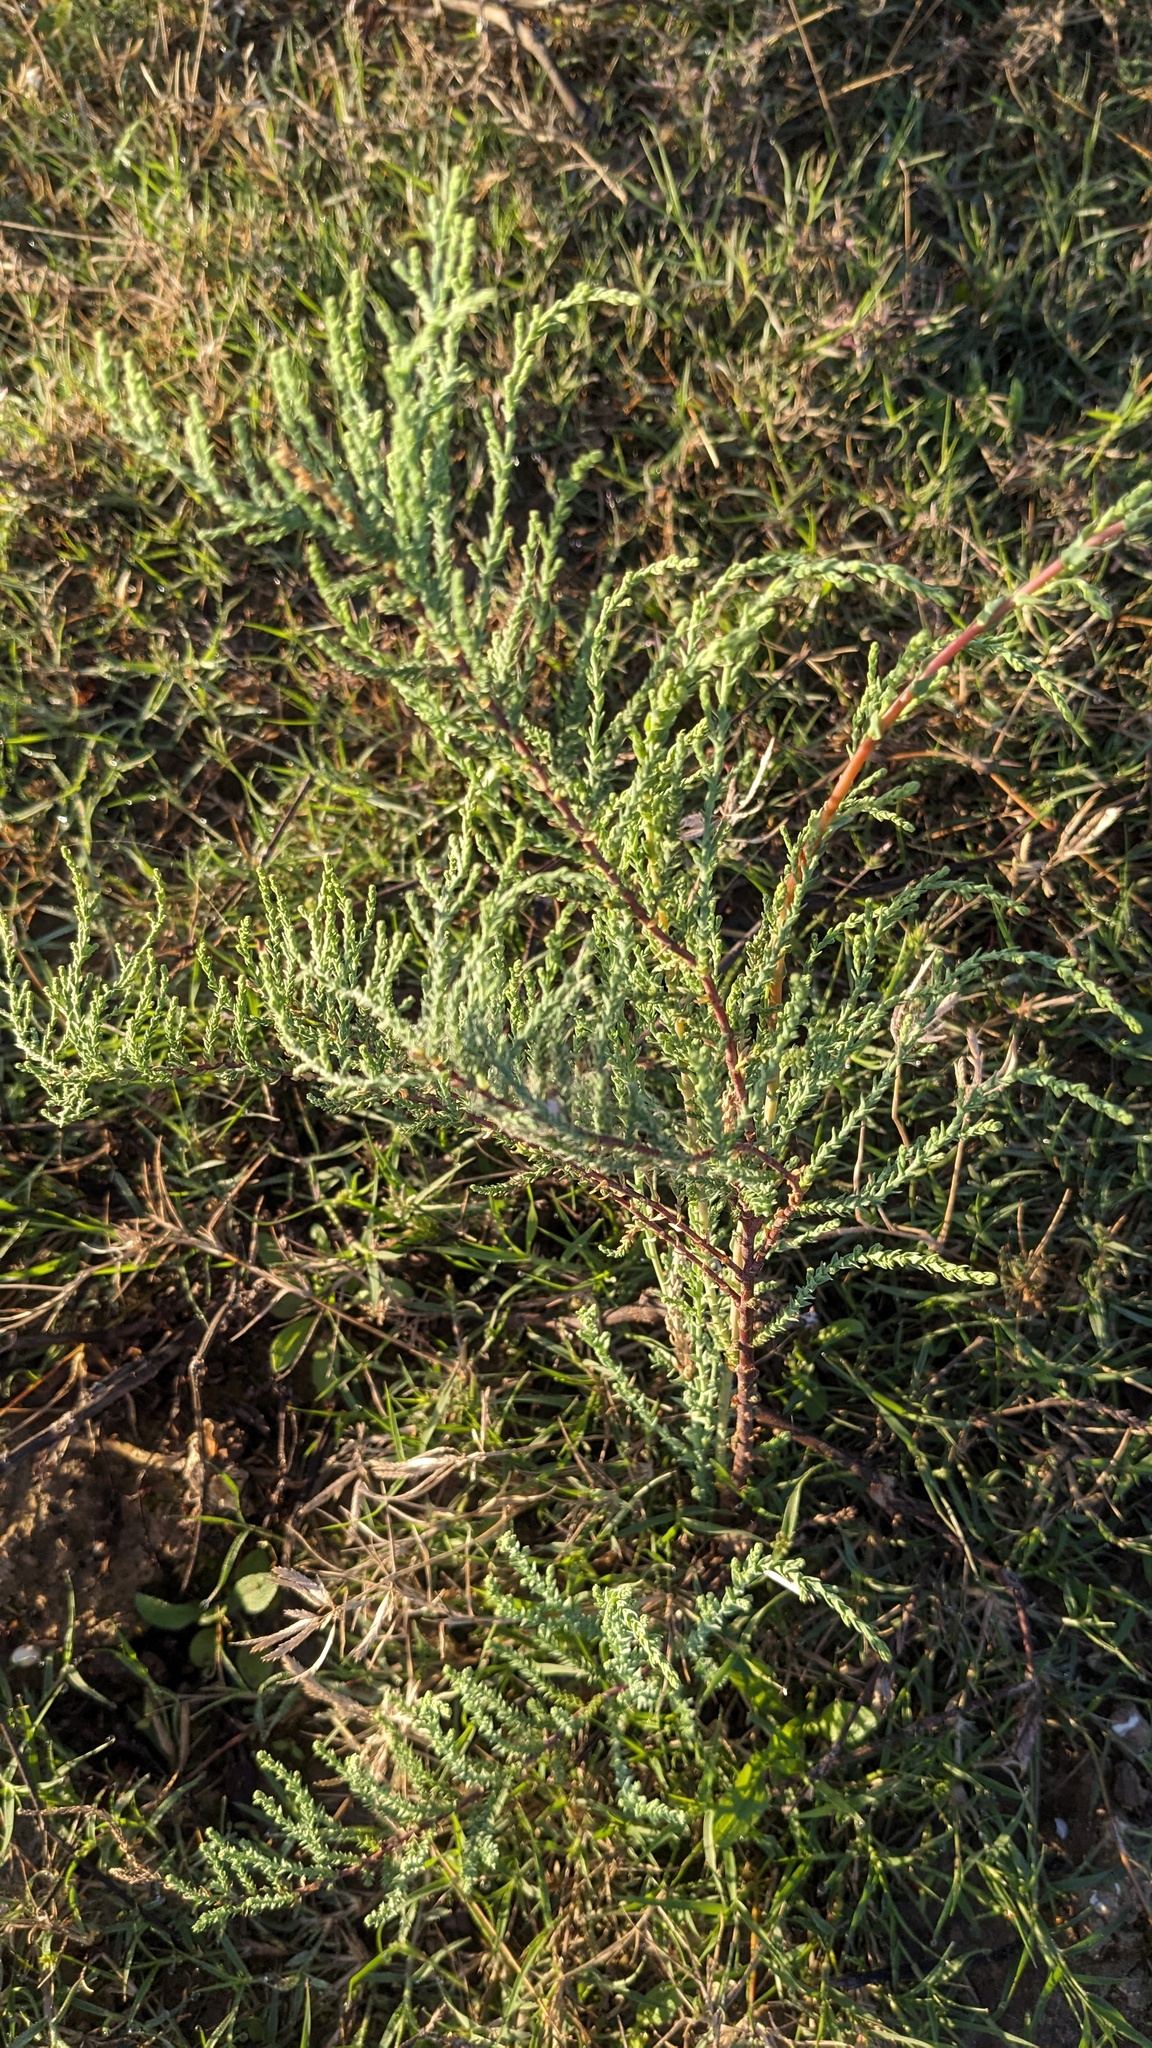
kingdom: Plantae
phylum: Tracheophyta
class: Magnoliopsida
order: Caryophyllales
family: Tamaricaceae
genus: Tamarix
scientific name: Tamarix
